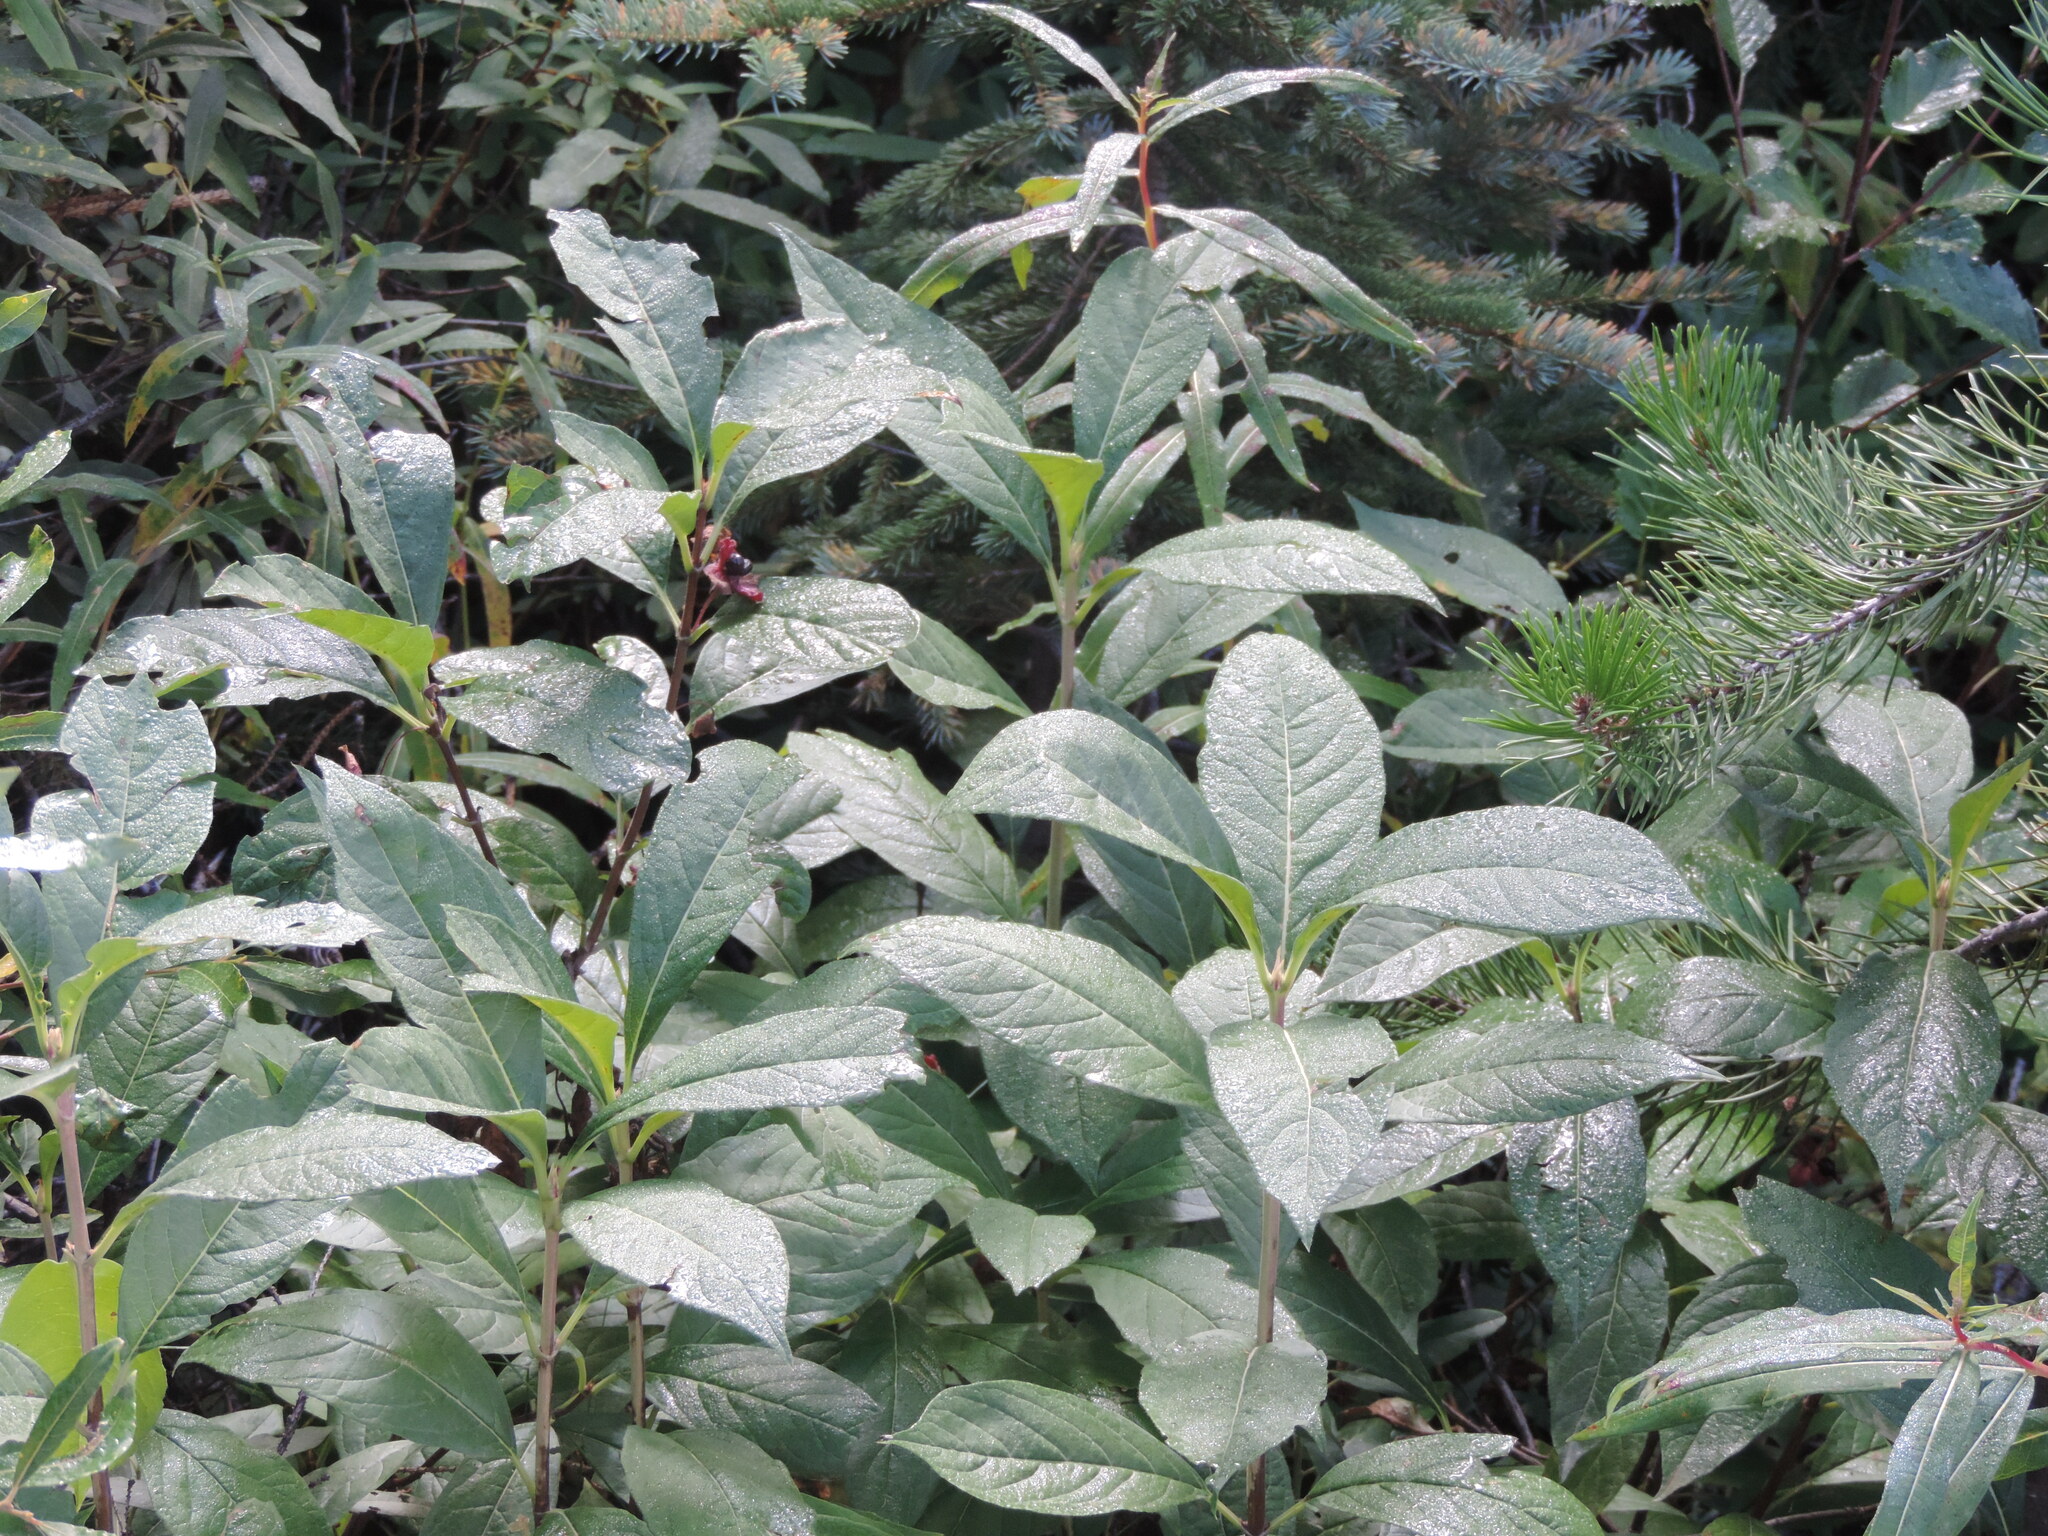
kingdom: Plantae
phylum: Tracheophyta
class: Magnoliopsida
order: Dipsacales
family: Caprifoliaceae
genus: Lonicera
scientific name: Lonicera involucrata
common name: Californian honeysuckle
